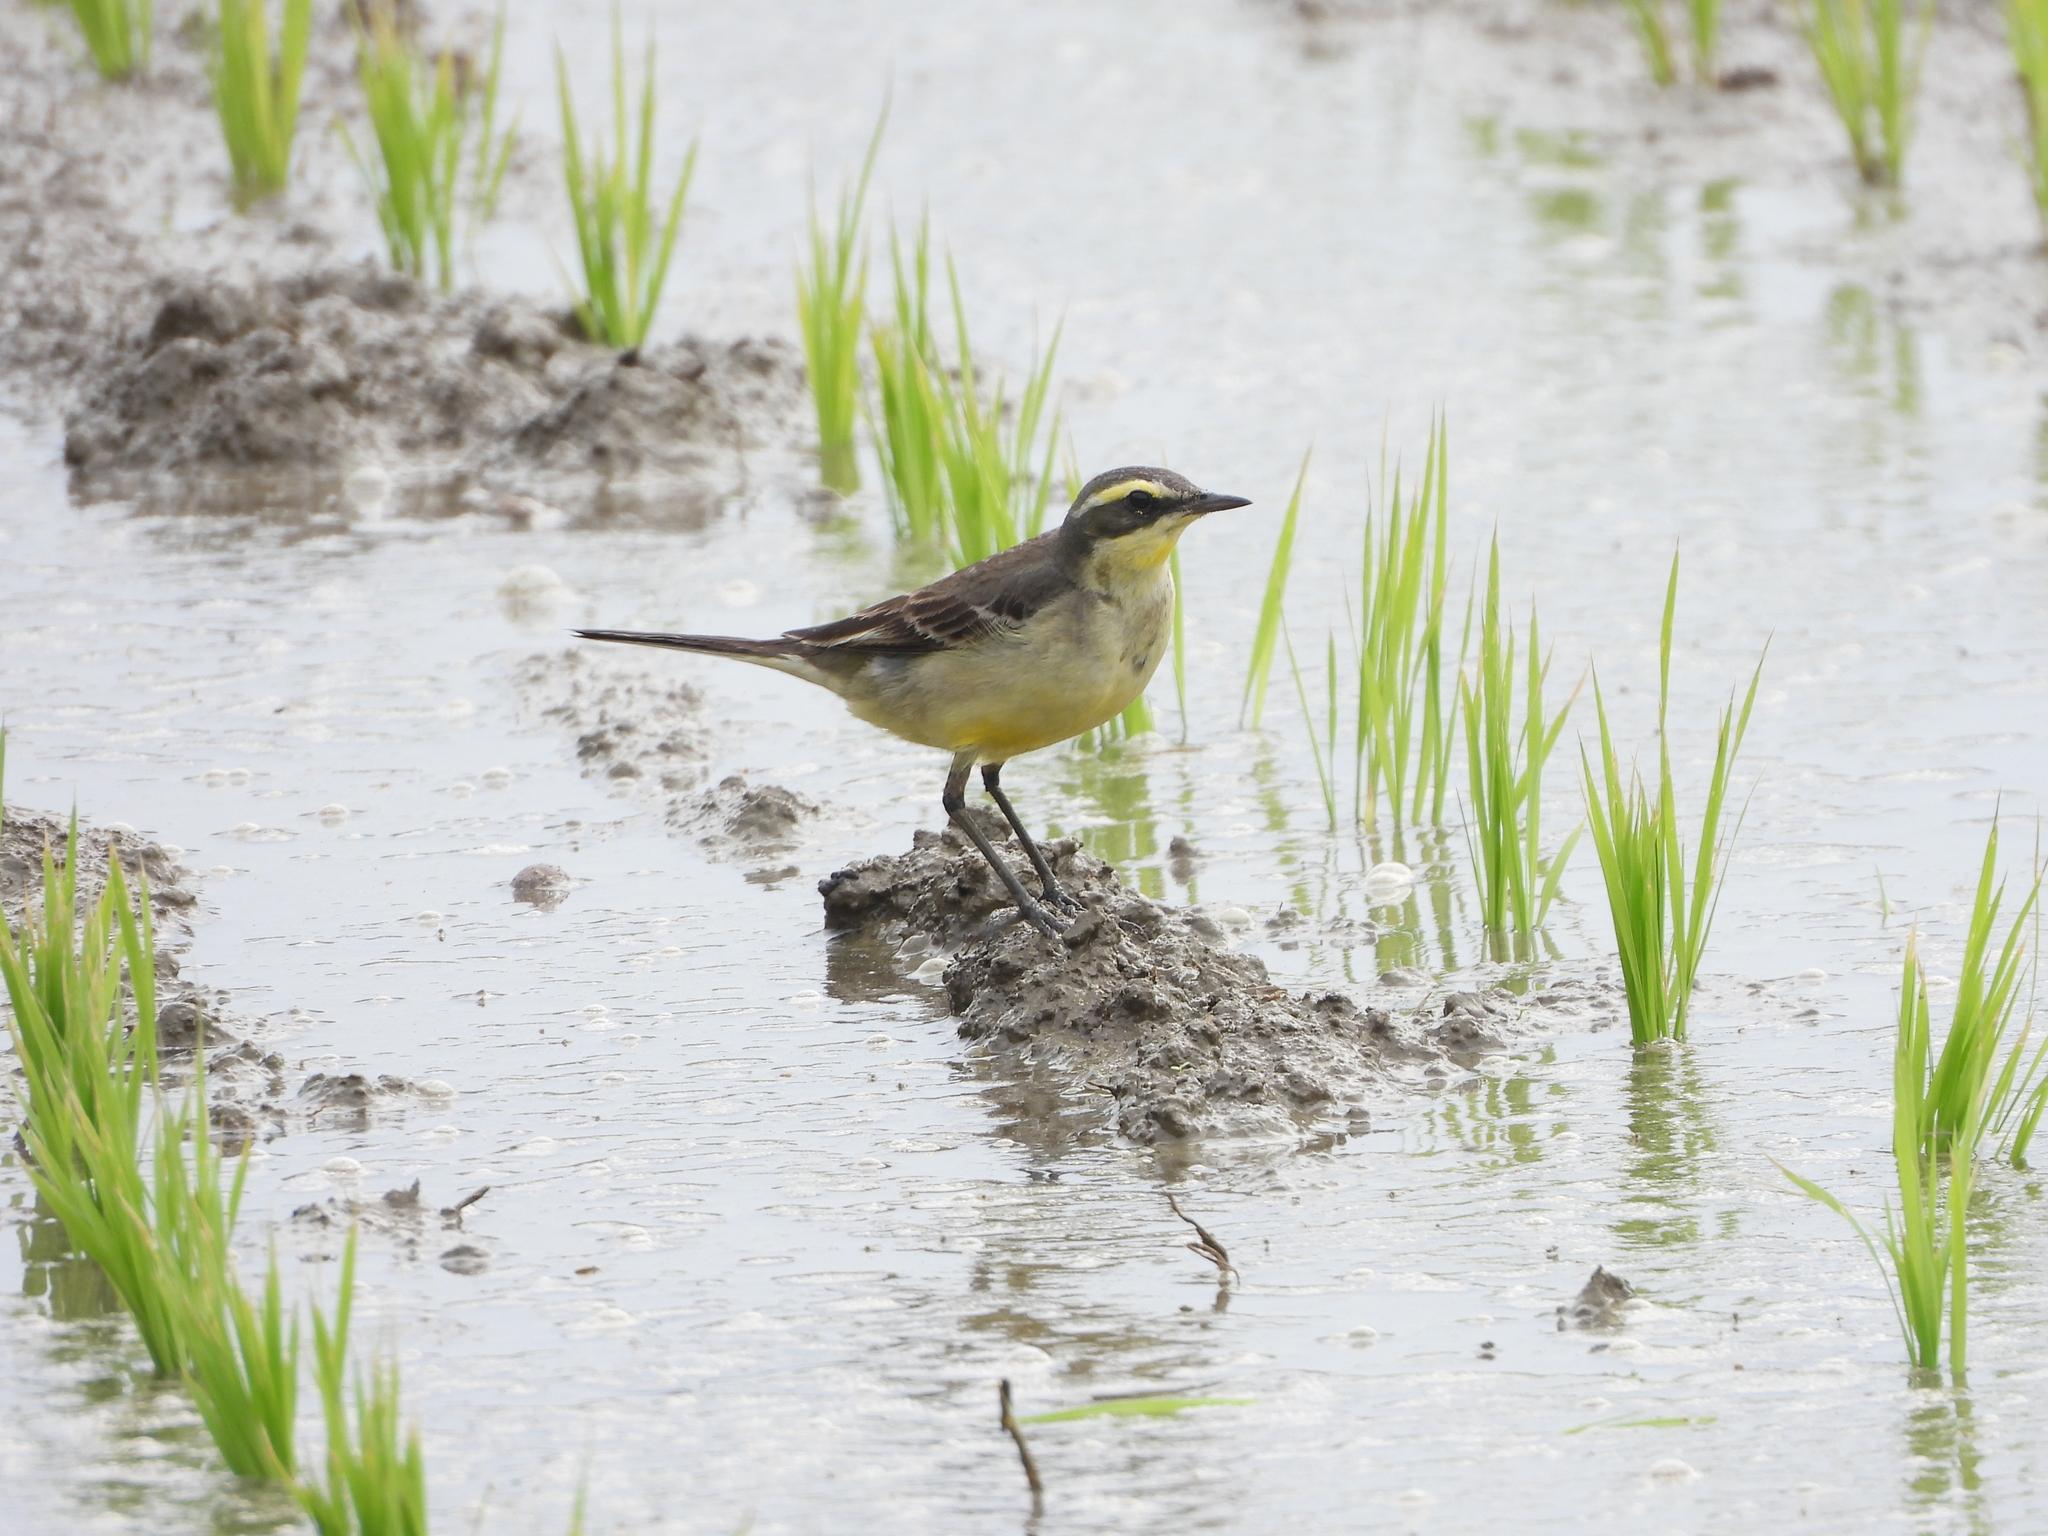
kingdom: Animalia
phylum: Chordata
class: Aves
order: Passeriformes
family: Motacillidae
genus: Motacilla
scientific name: Motacilla tschutschensis
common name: Eastern yellow wagtail
